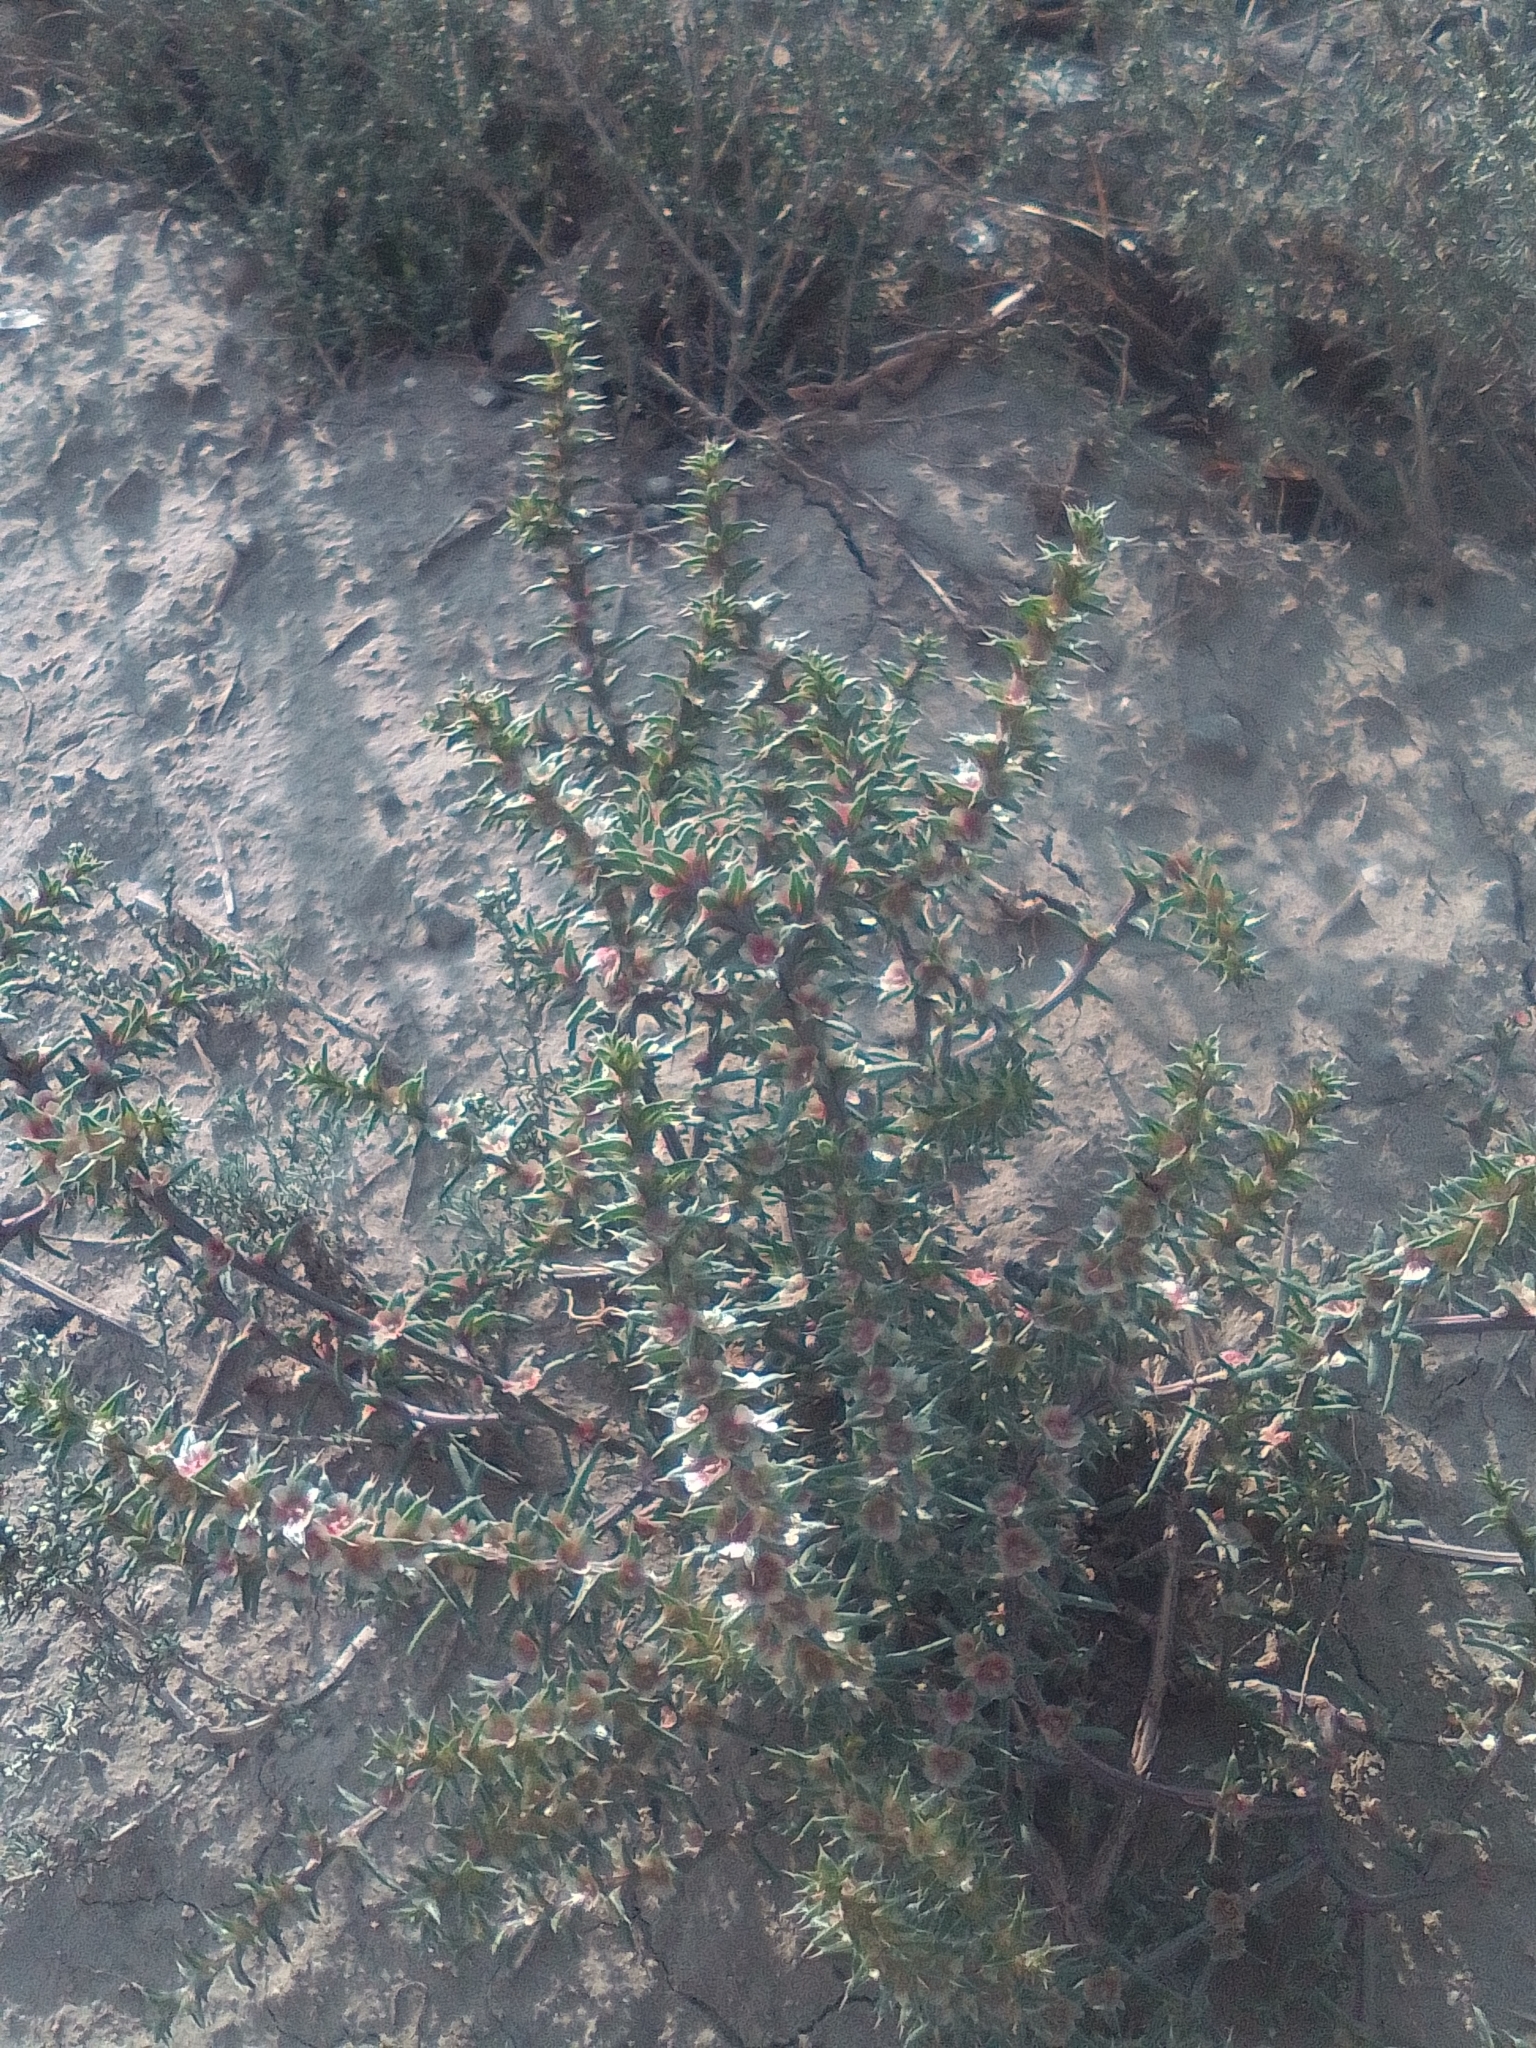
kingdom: Plantae
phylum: Tracheophyta
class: Magnoliopsida
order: Caryophyllales
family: Amaranthaceae
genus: Salsola
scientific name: Salsola tragus
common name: Prickly russian thistle
